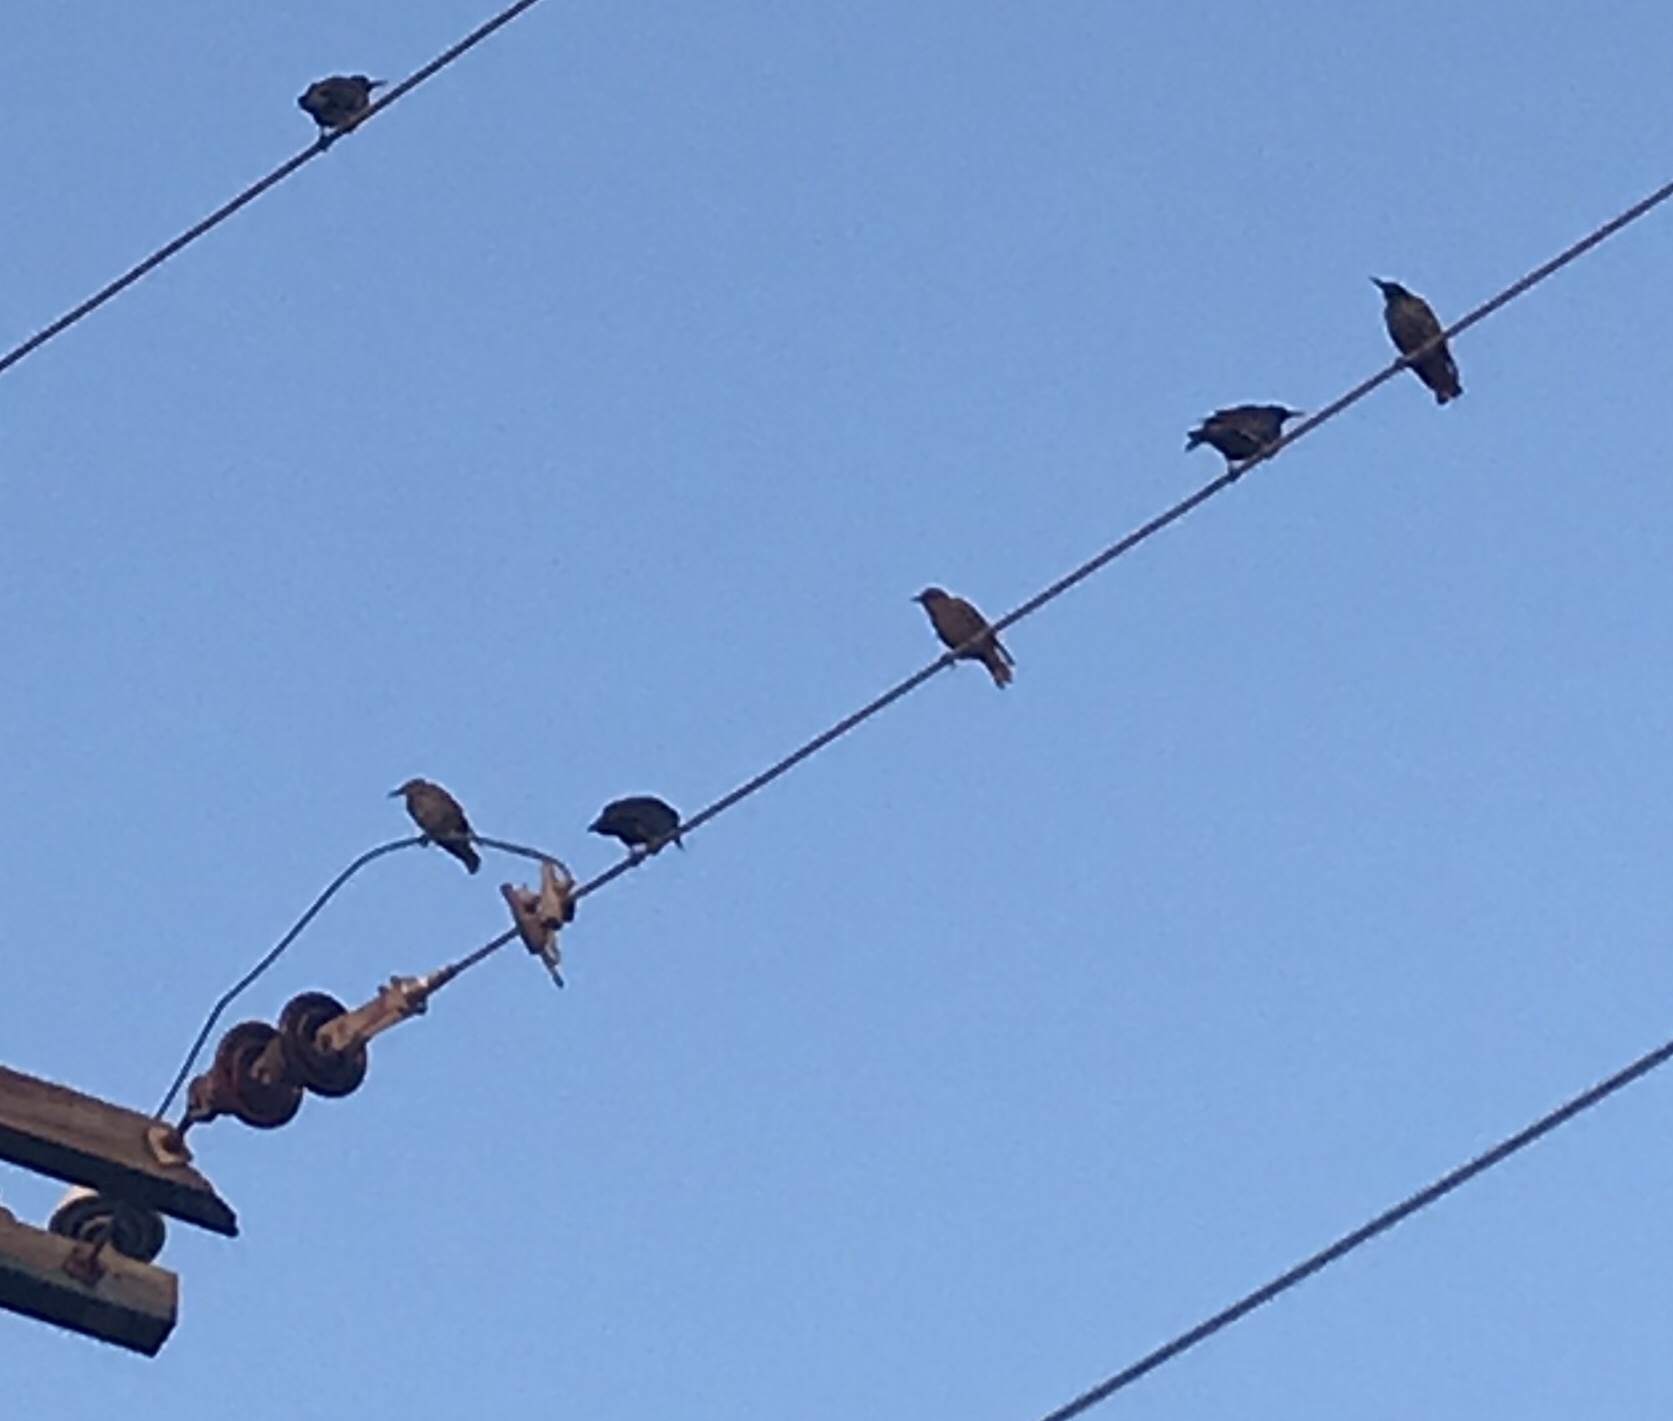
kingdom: Animalia
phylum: Chordata
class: Aves
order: Passeriformes
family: Sturnidae
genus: Sturnus
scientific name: Sturnus vulgaris
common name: Common starling
